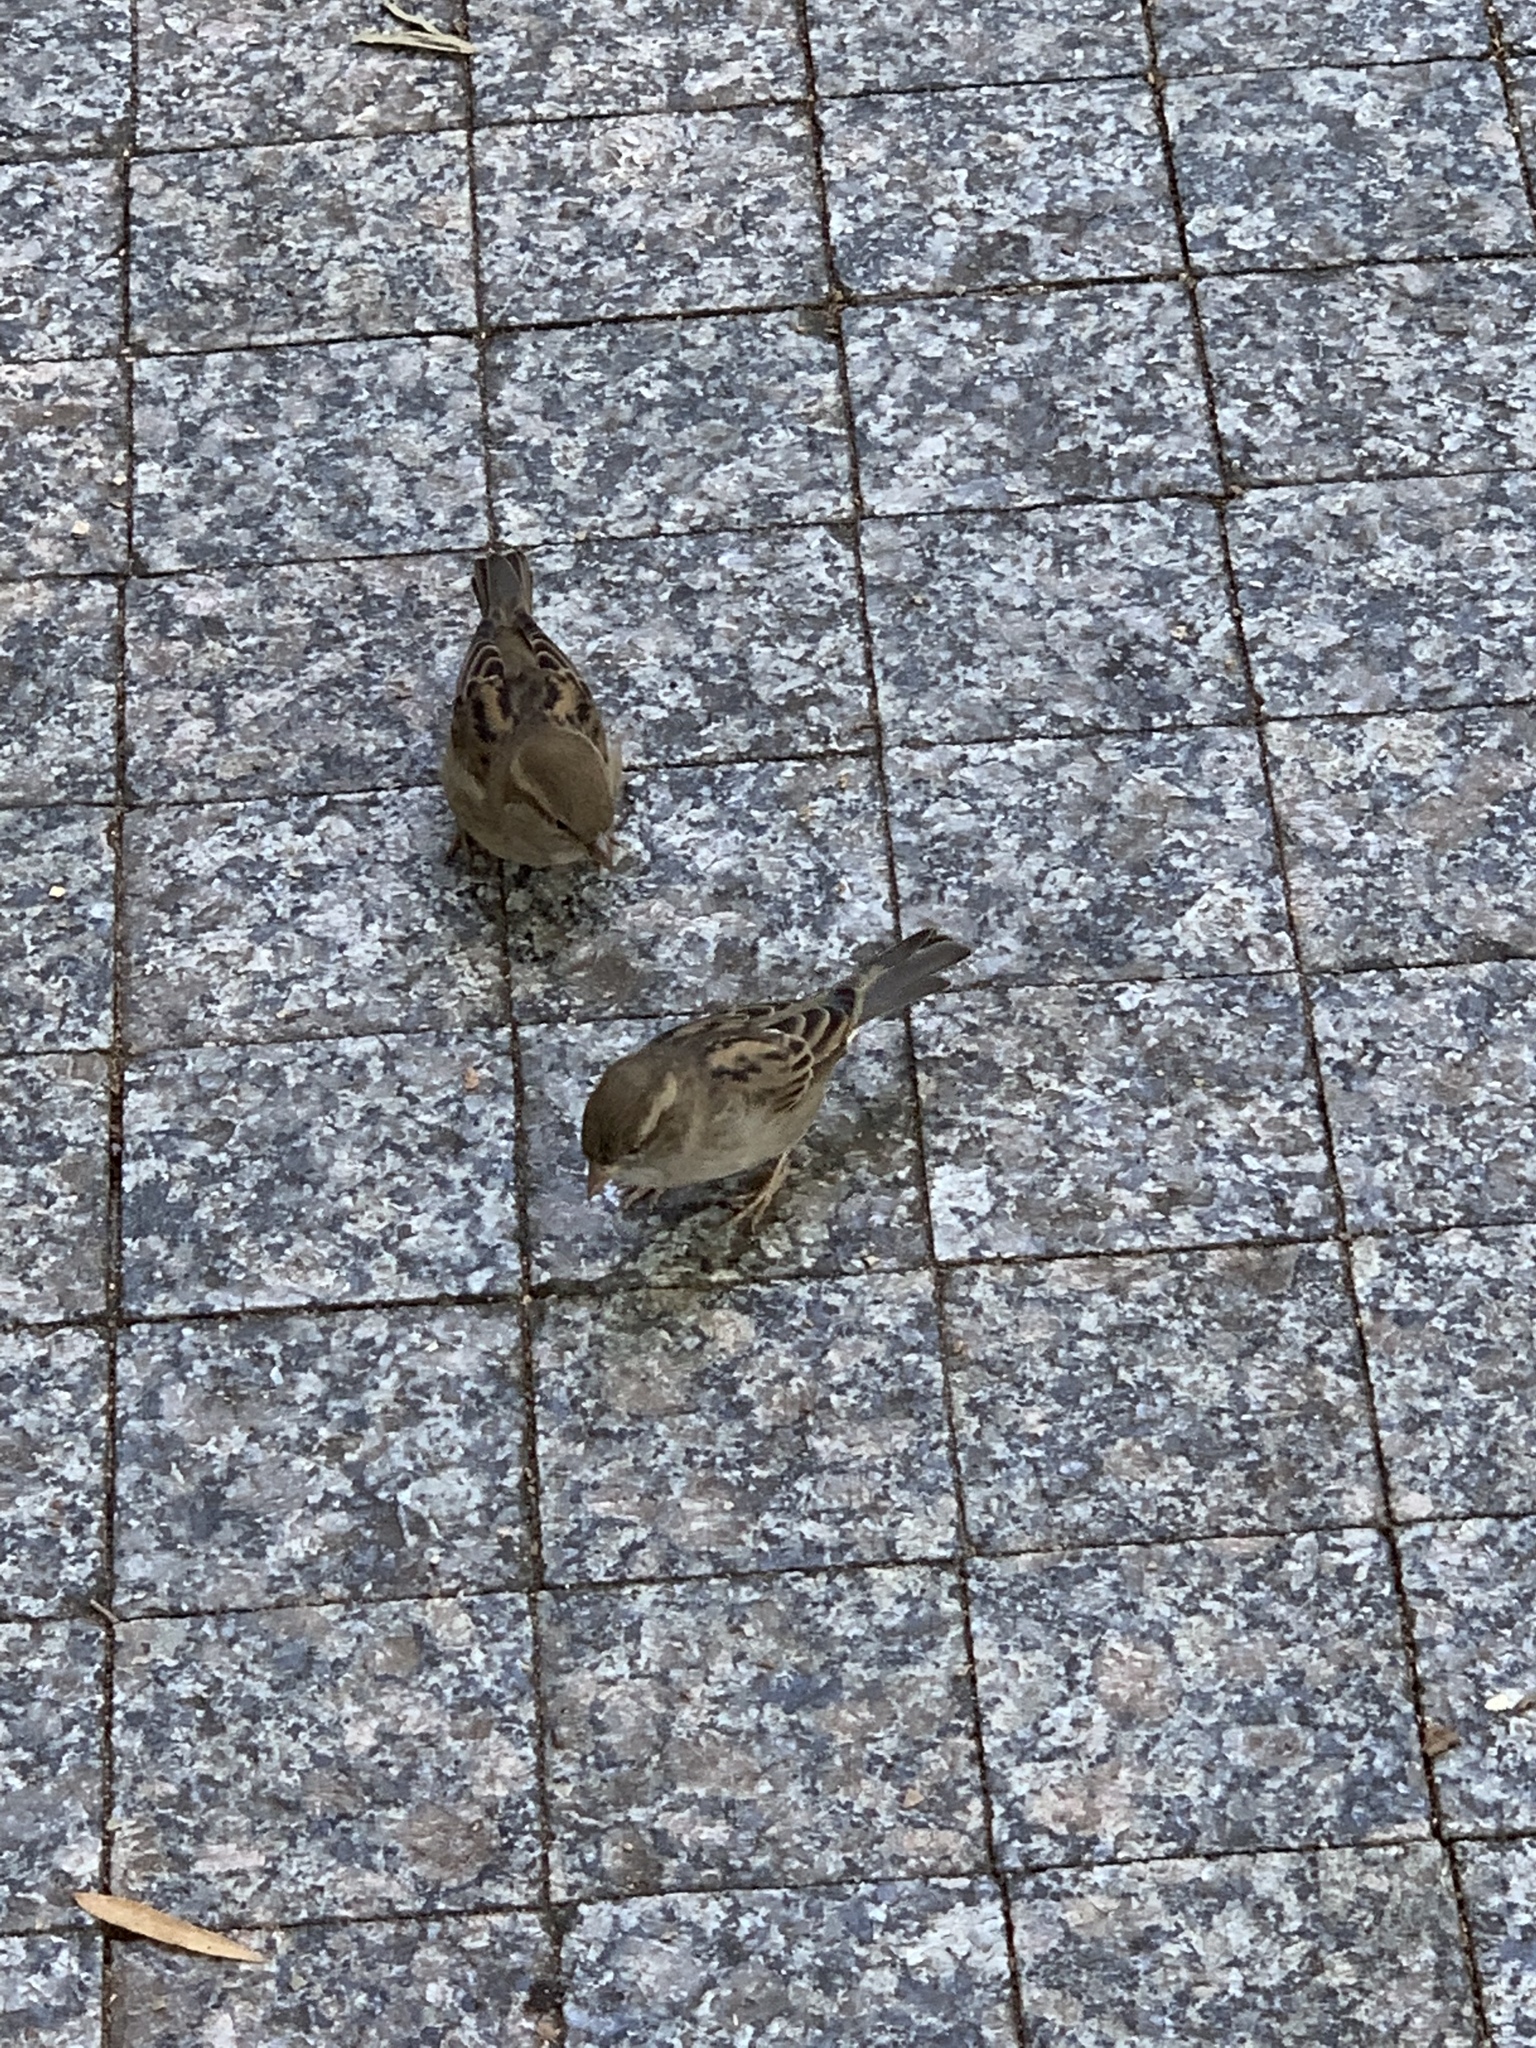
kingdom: Animalia
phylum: Chordata
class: Aves
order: Passeriformes
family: Passeridae
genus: Passer
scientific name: Passer domesticus
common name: House sparrow
